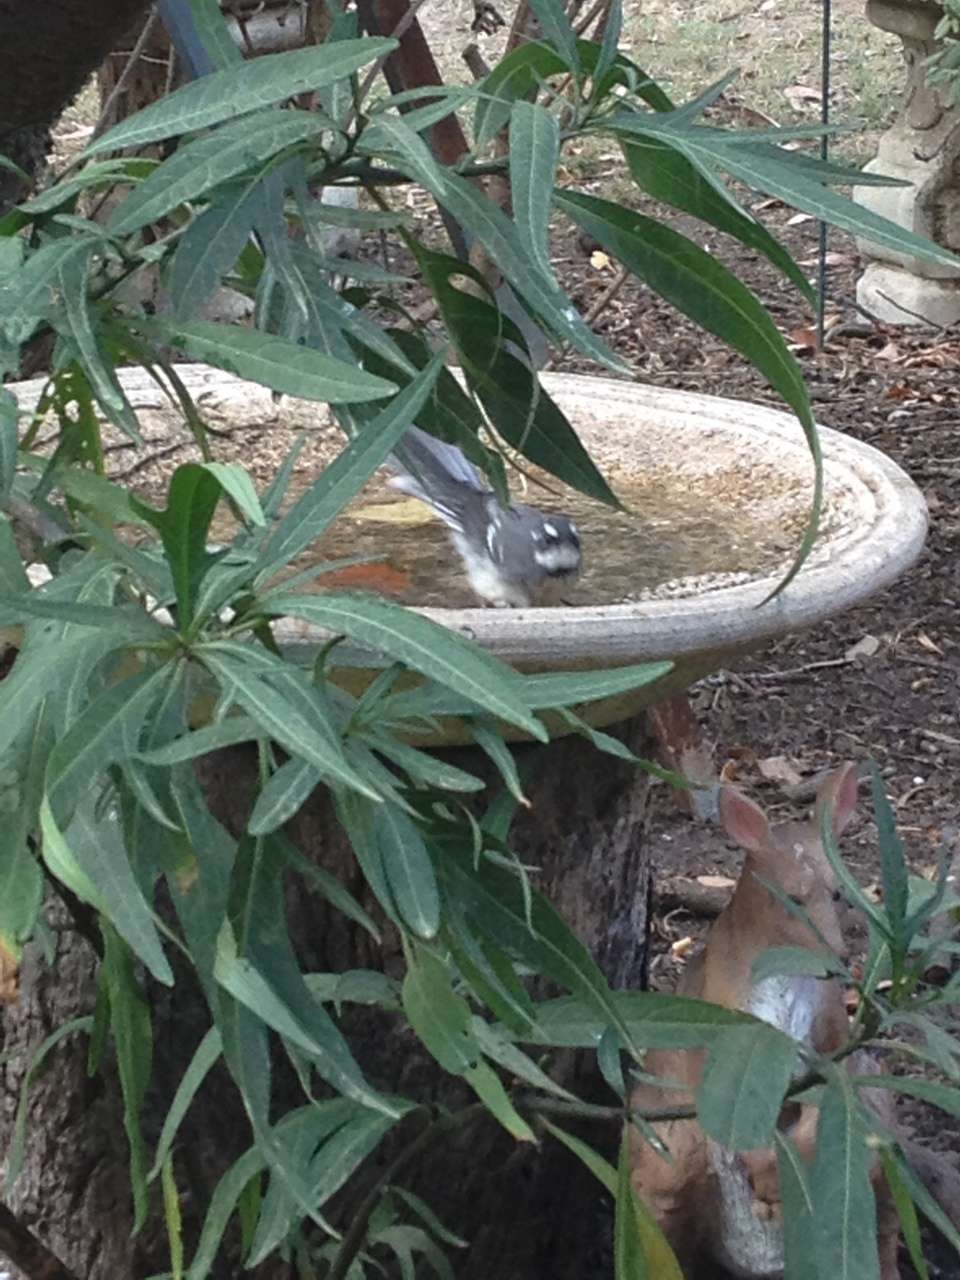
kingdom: Animalia
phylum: Chordata
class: Aves
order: Passeriformes
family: Rhipiduridae
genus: Rhipidura
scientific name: Rhipidura albiscapa
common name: Grey fantail
